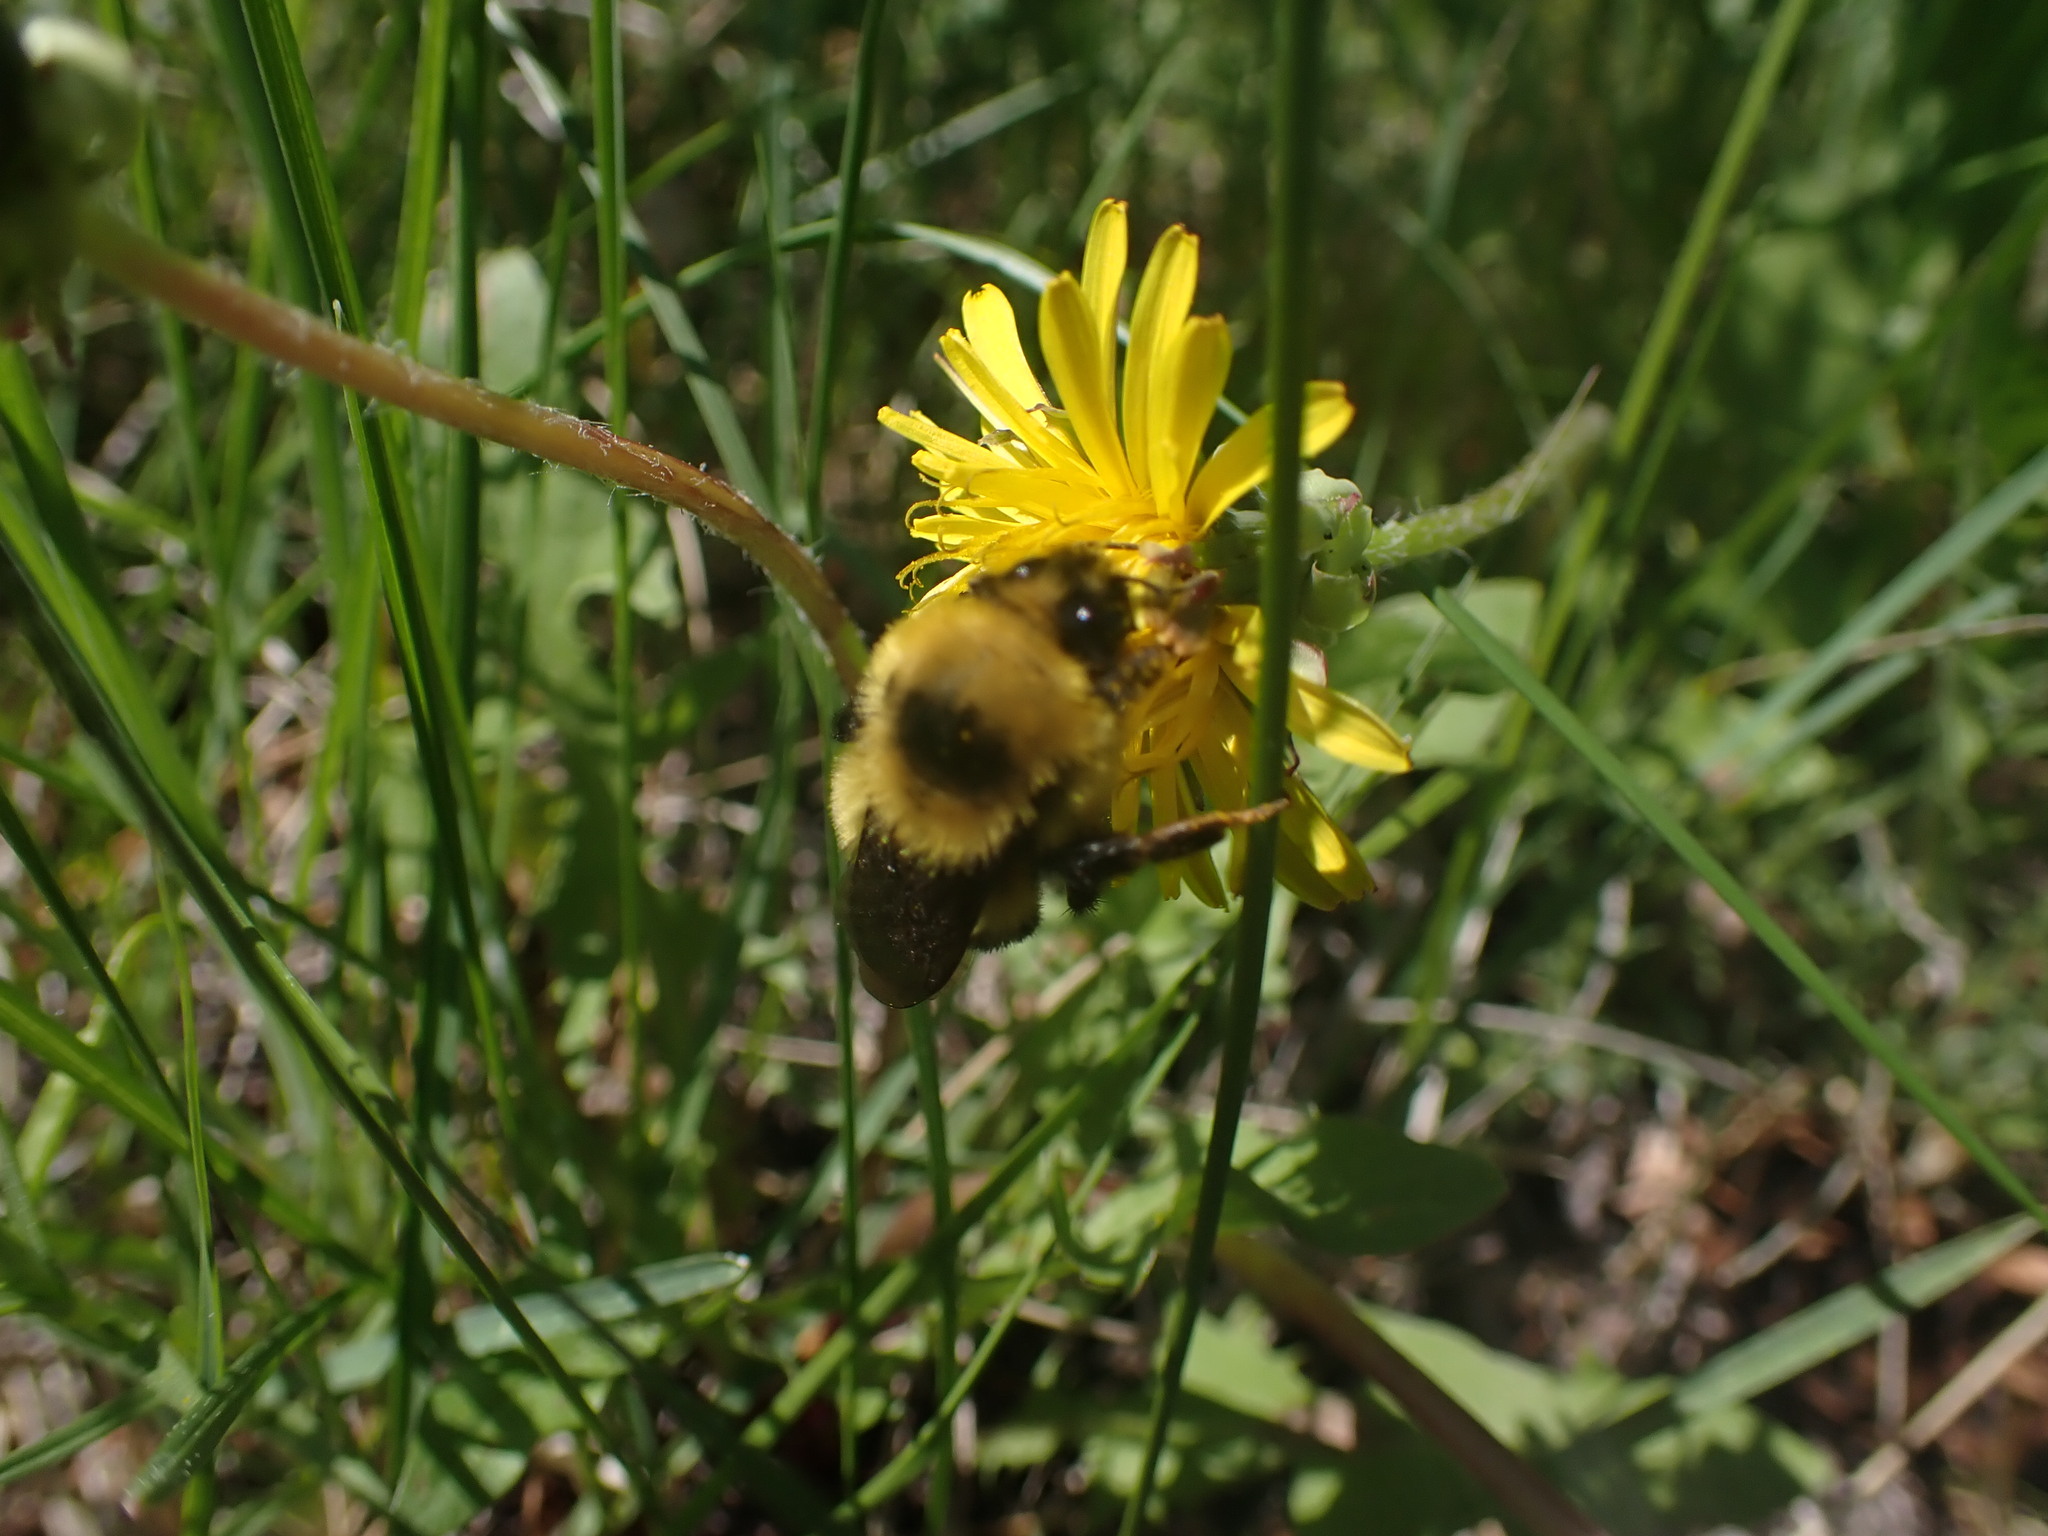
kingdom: Animalia
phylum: Arthropoda
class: Insecta
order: Hymenoptera
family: Apidae
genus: Bombus
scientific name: Bombus rufocinctus
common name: Red-belted bumble bee
